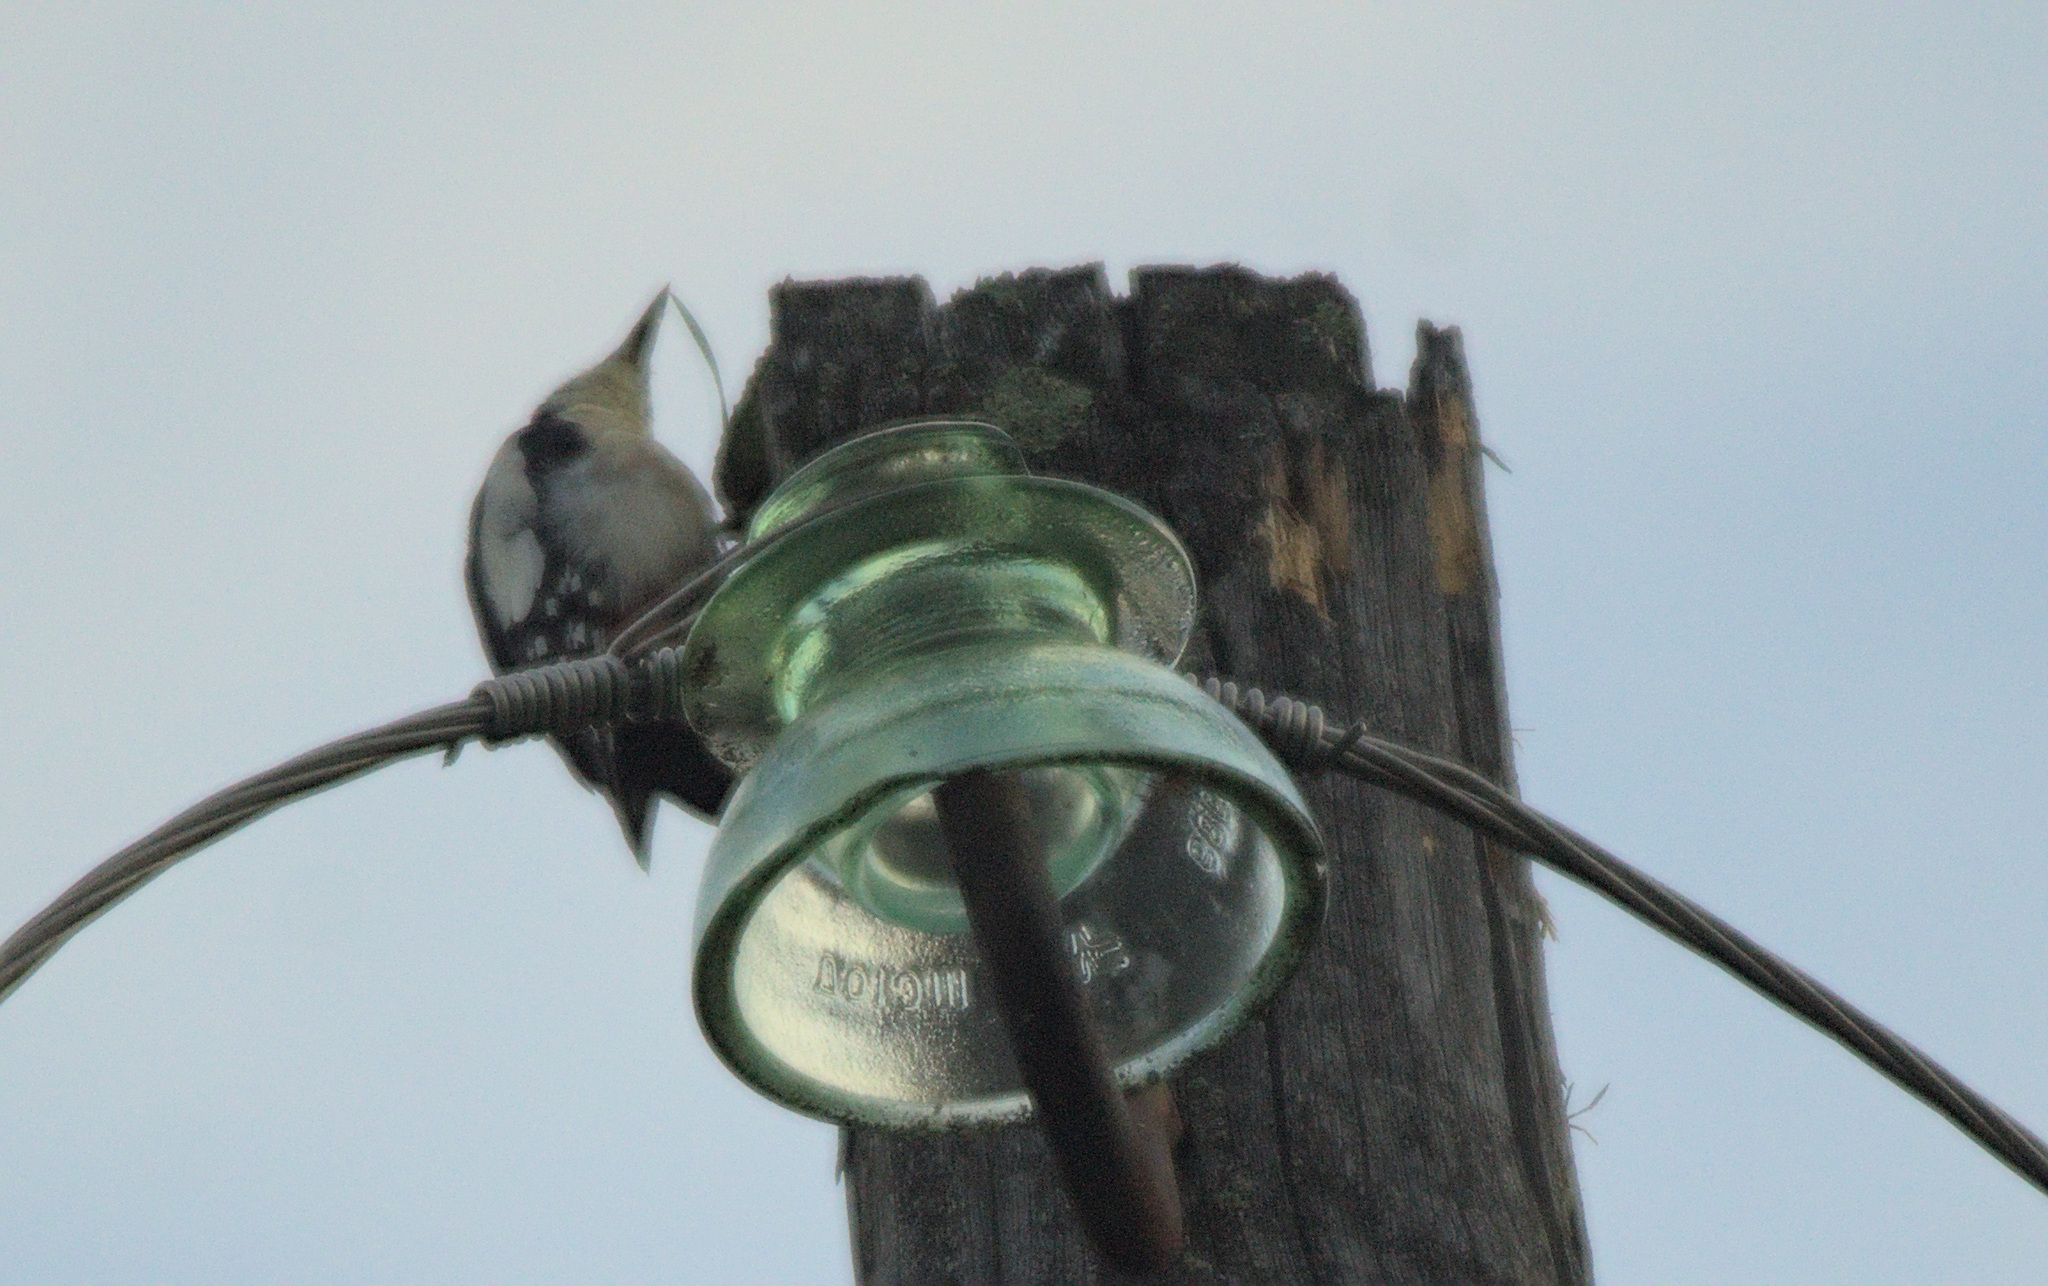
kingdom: Animalia
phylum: Chordata
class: Aves
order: Piciformes
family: Picidae
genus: Dendrocopos
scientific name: Dendrocopos major
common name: Great spotted woodpecker
